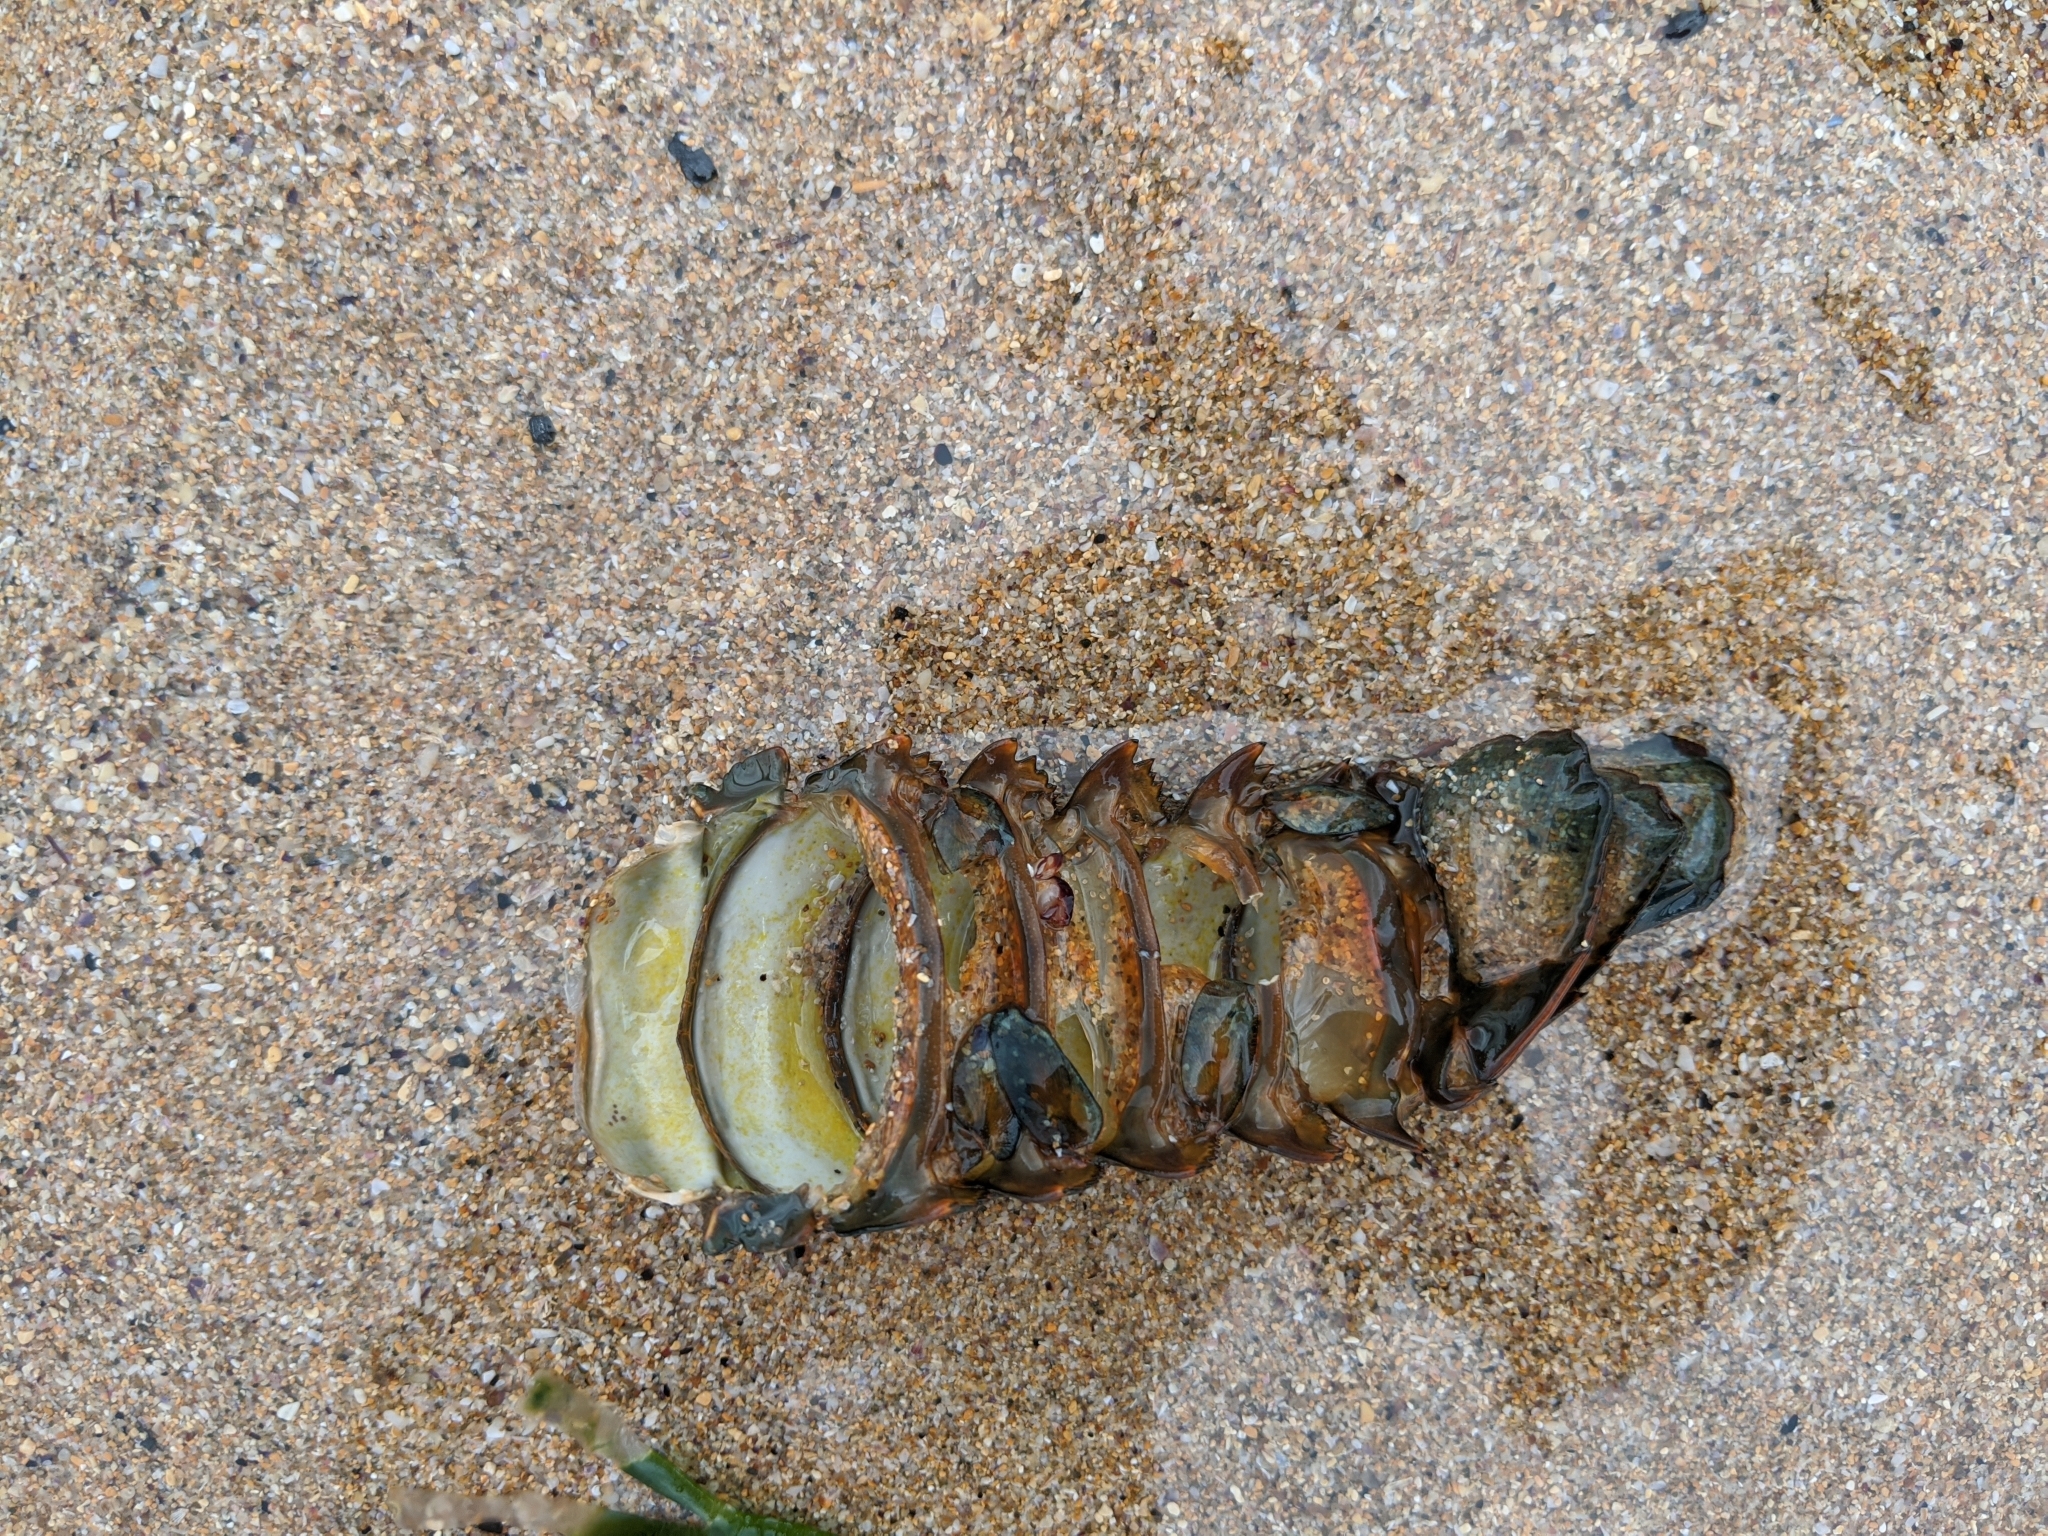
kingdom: Animalia
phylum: Arthropoda
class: Malacostraca
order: Decapoda
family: Palinuridae
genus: Sagmariasus
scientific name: Sagmariasus verreauxi
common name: Green rock lobster
